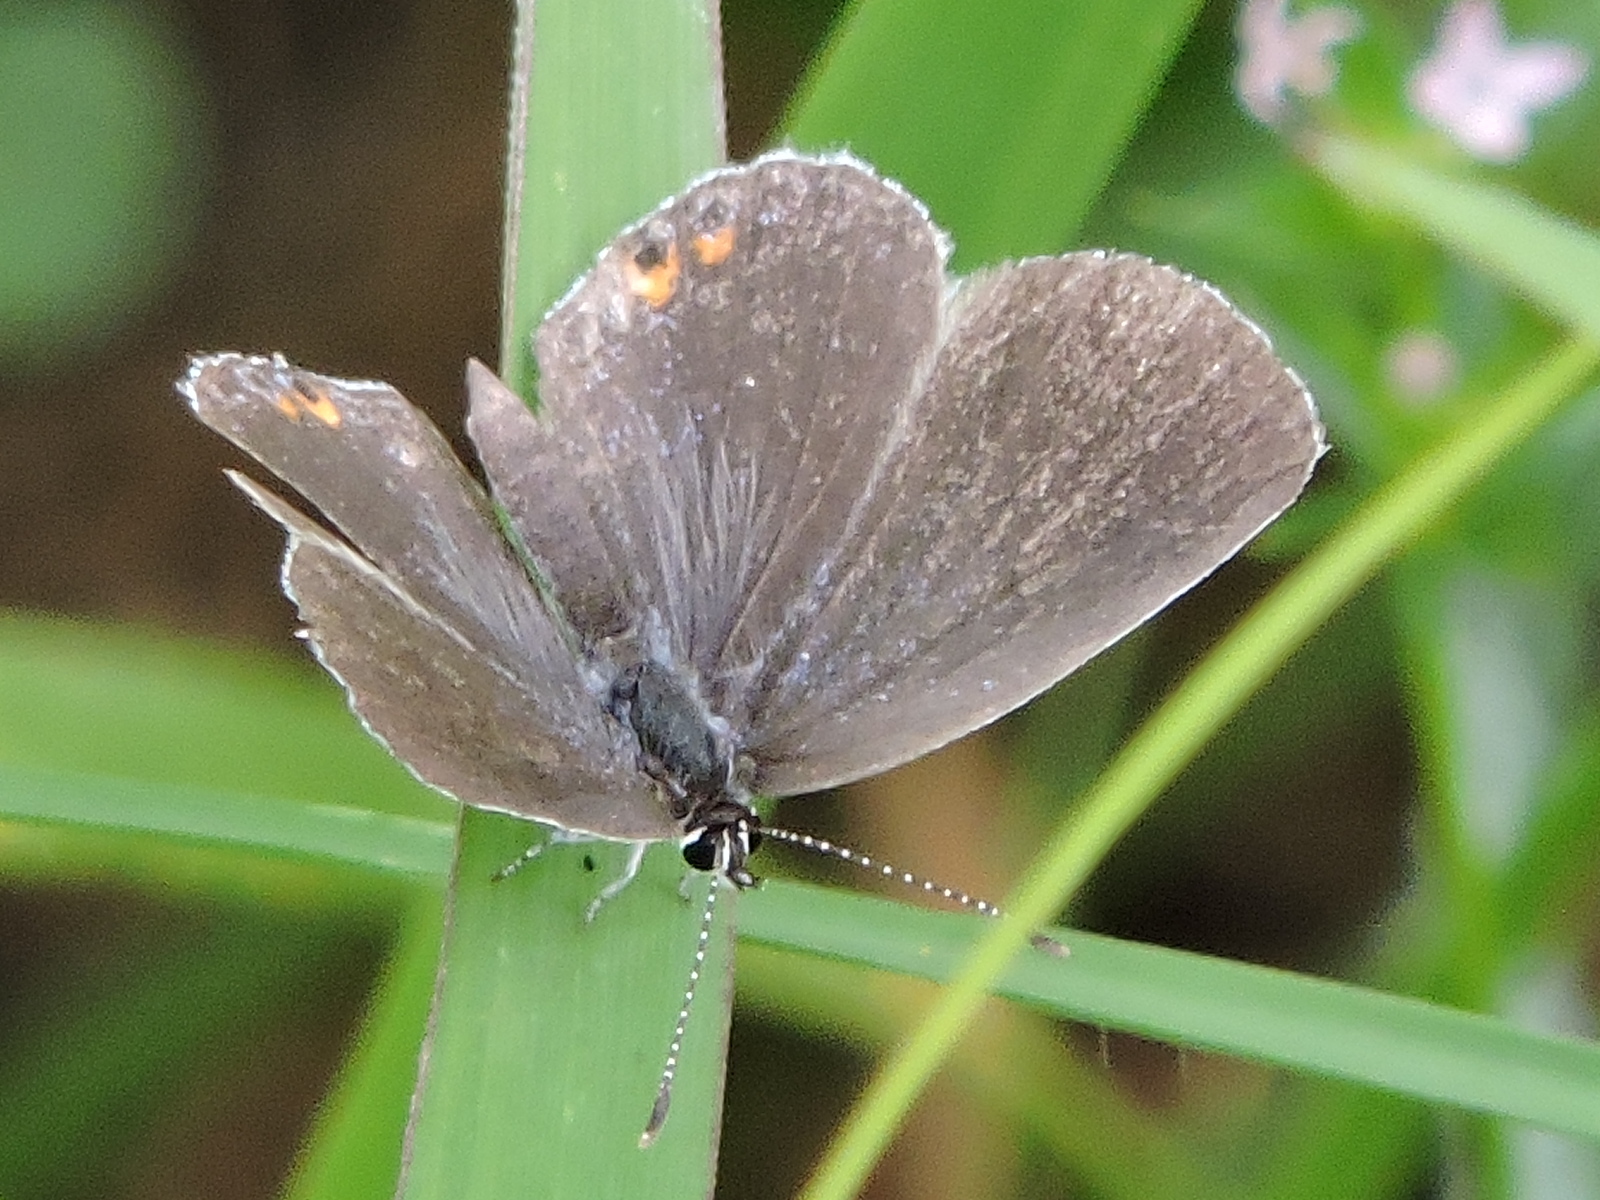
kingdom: Animalia
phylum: Arthropoda
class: Insecta
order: Lepidoptera
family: Lycaenidae
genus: Elkalyce
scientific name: Elkalyce comyntas
